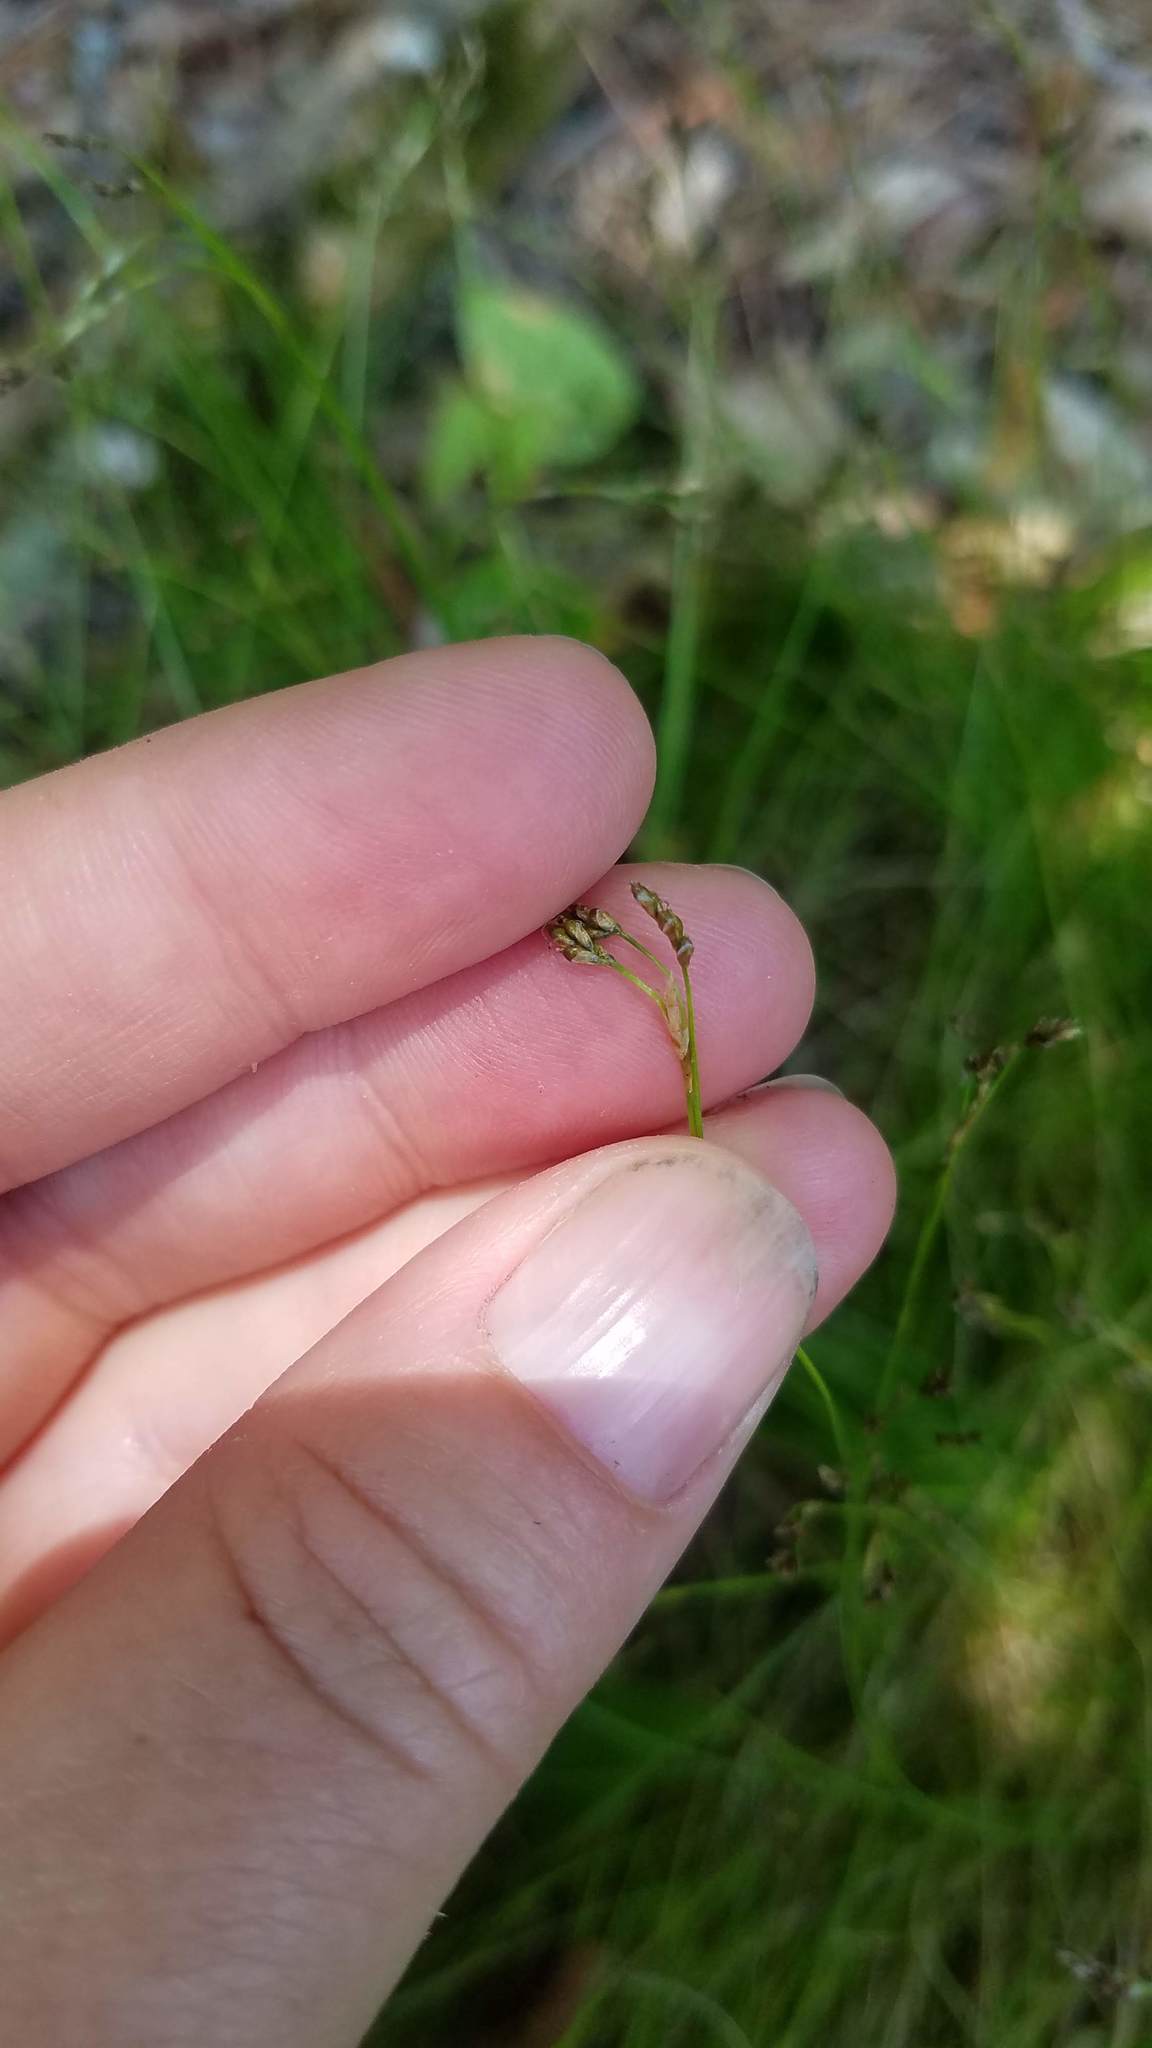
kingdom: Plantae
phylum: Tracheophyta
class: Liliopsida
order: Poales
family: Cyperaceae
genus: Carex
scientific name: Carex eburnea
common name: Bristle-leaved sedge
